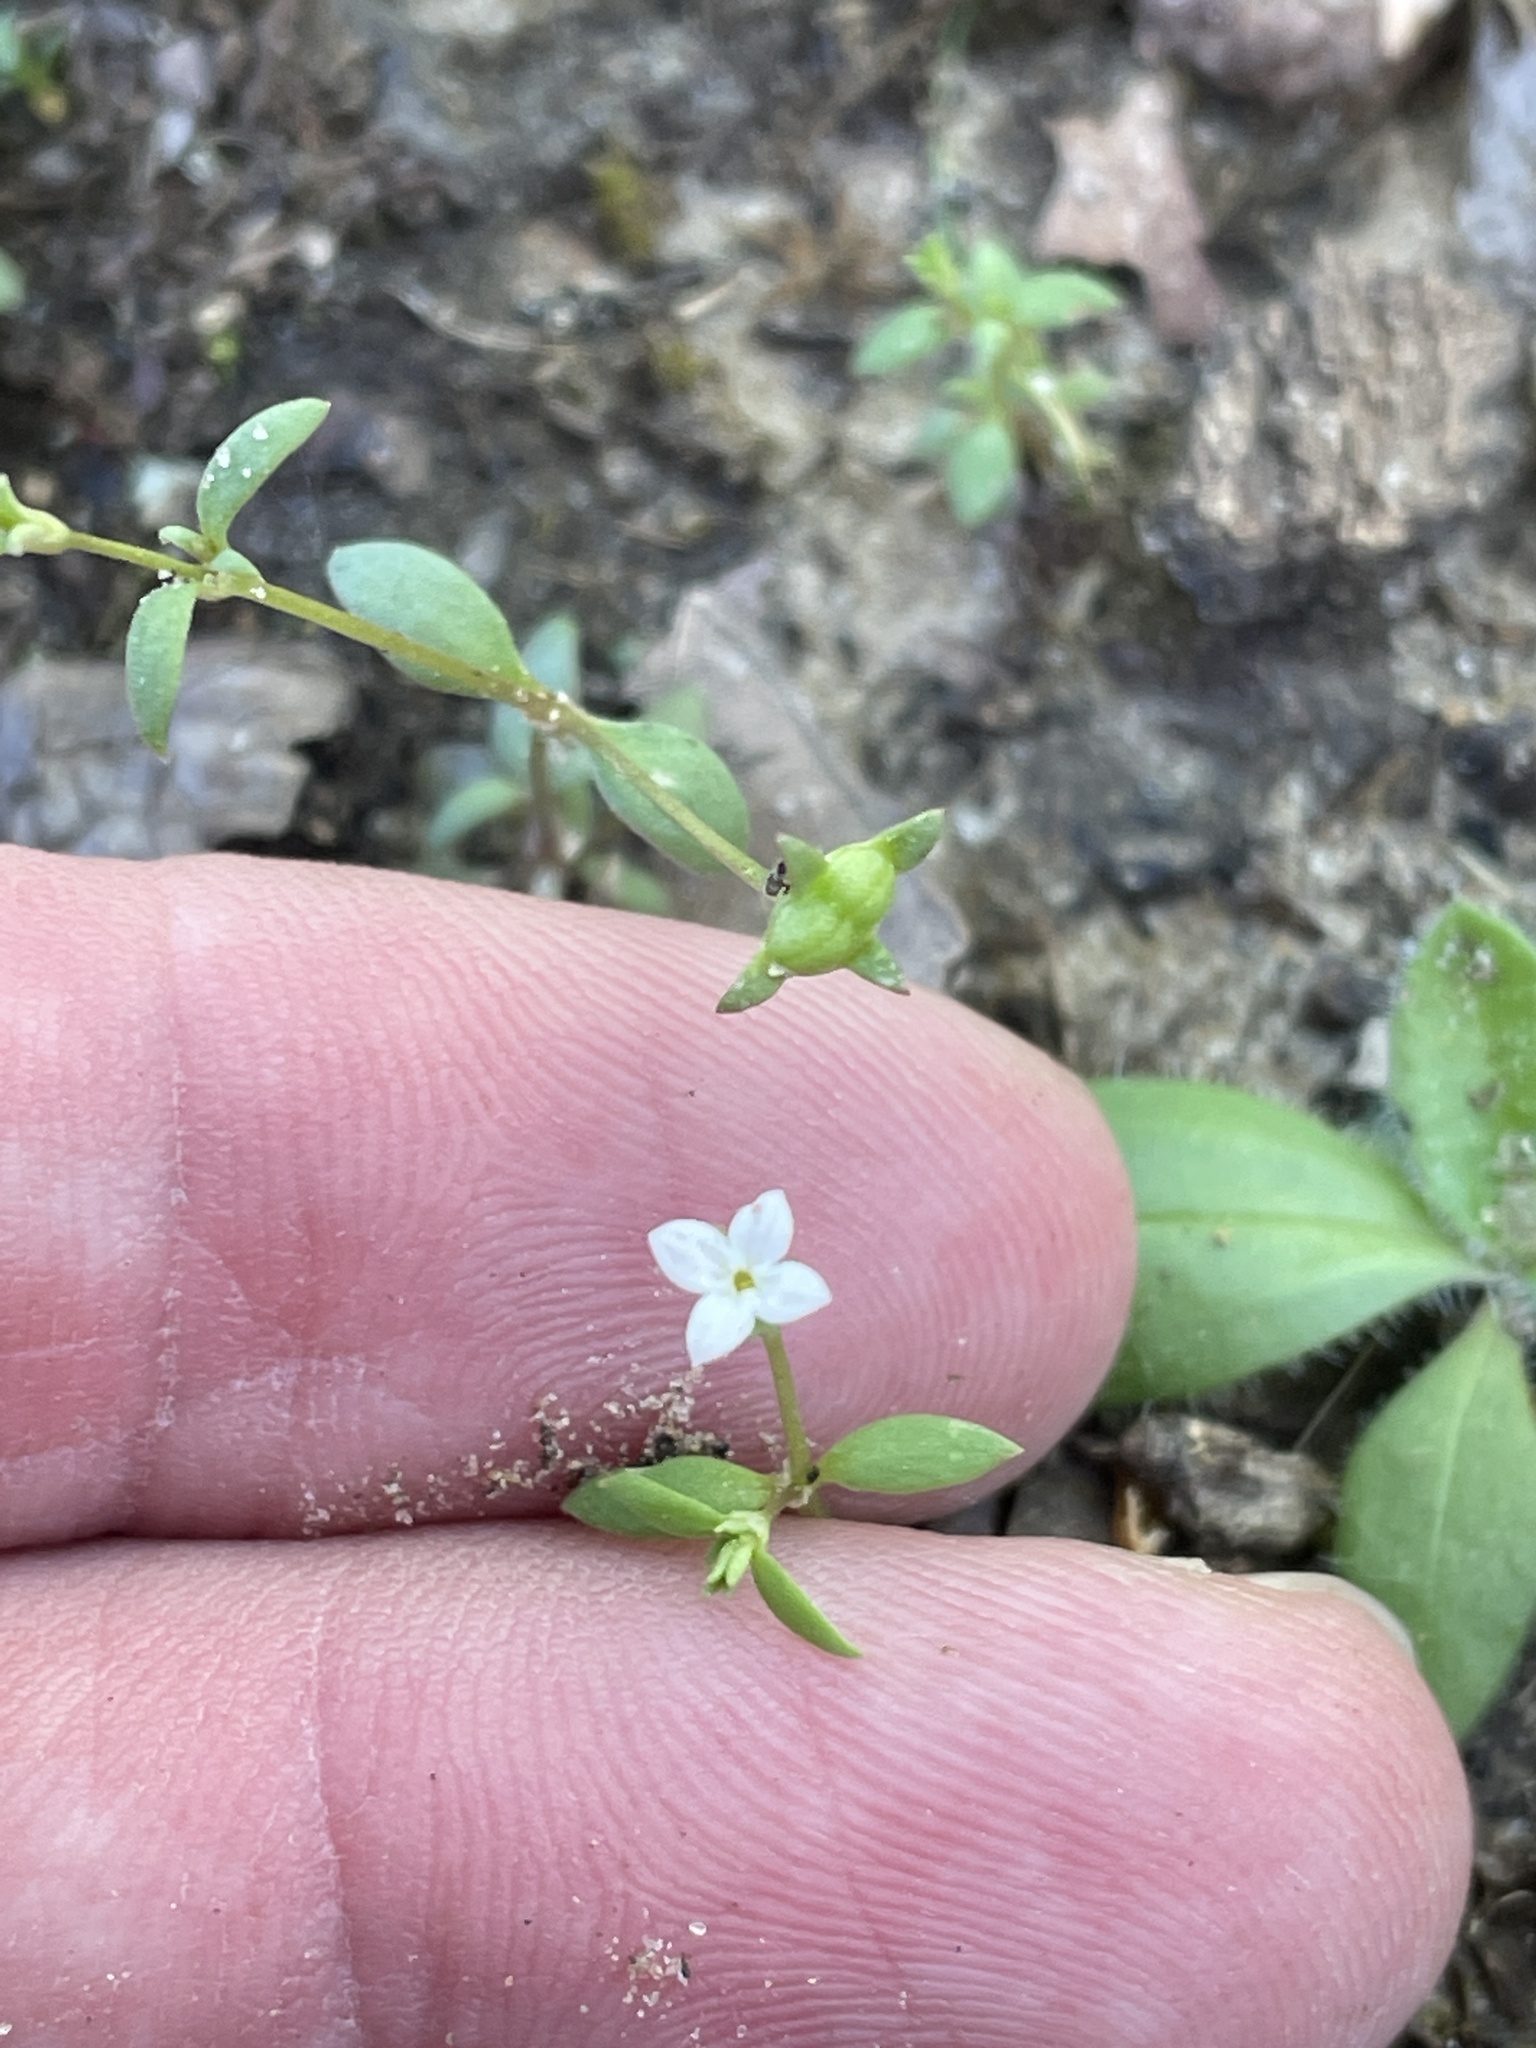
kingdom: Plantae
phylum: Tracheophyta
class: Magnoliopsida
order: Gentianales
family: Rubiaceae
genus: Houstonia
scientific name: Houstonia micrantha
